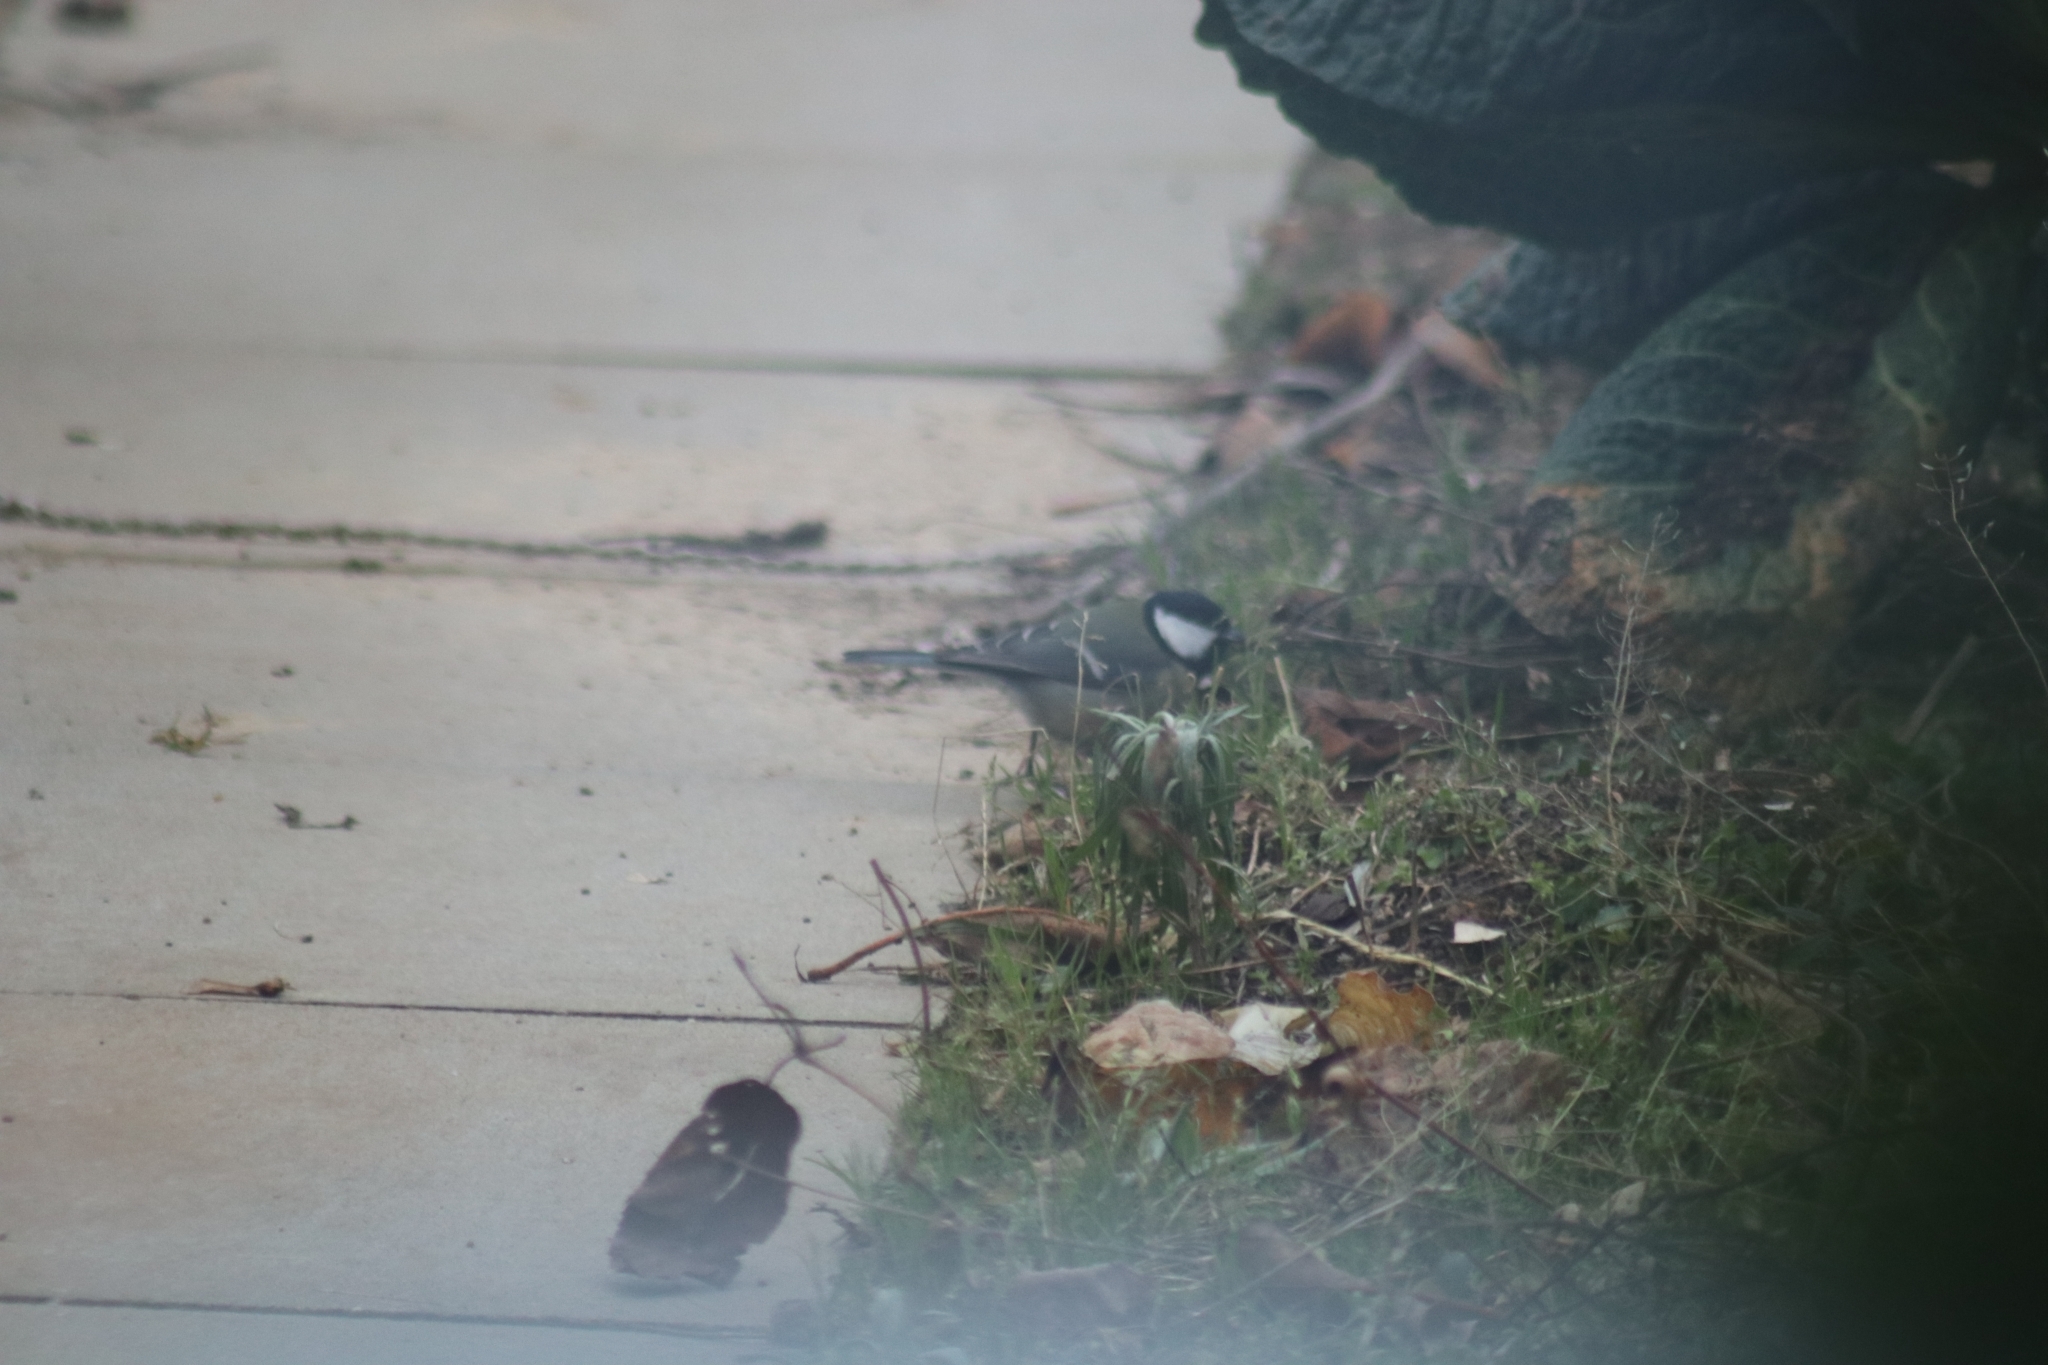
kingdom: Animalia
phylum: Chordata
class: Aves
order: Passeriformes
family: Paridae
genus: Parus
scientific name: Parus major
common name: Great tit
